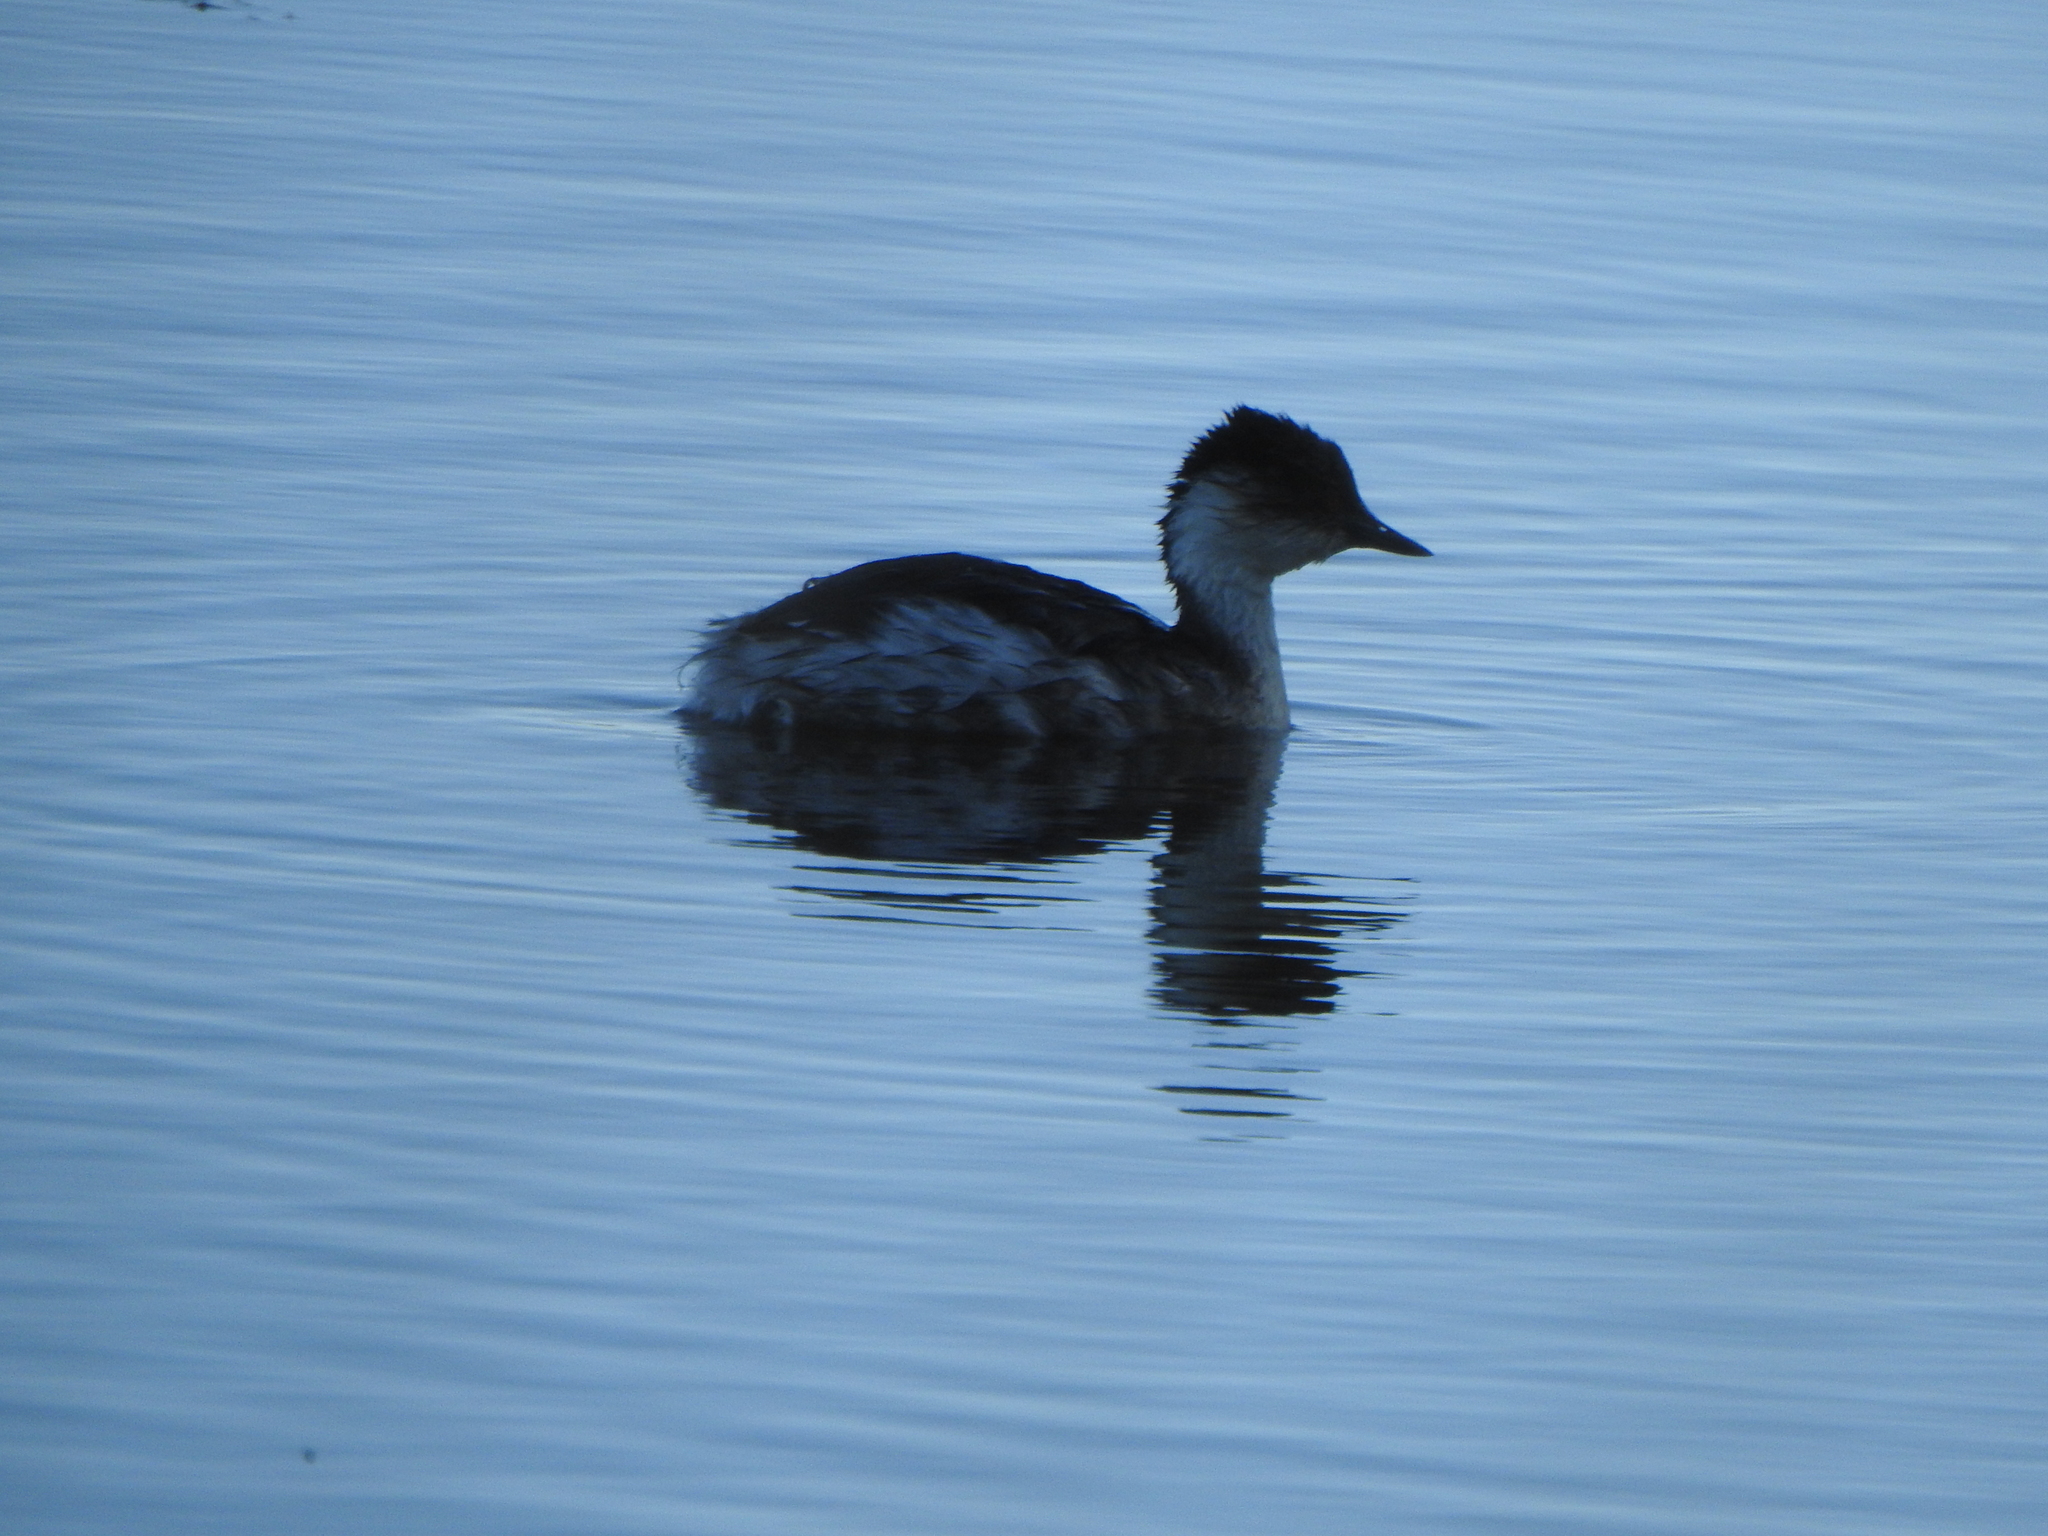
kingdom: Animalia
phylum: Chordata
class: Aves
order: Podicipediformes
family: Podicipedidae
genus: Podiceps
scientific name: Podiceps occipitalis
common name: Silvery grebe
